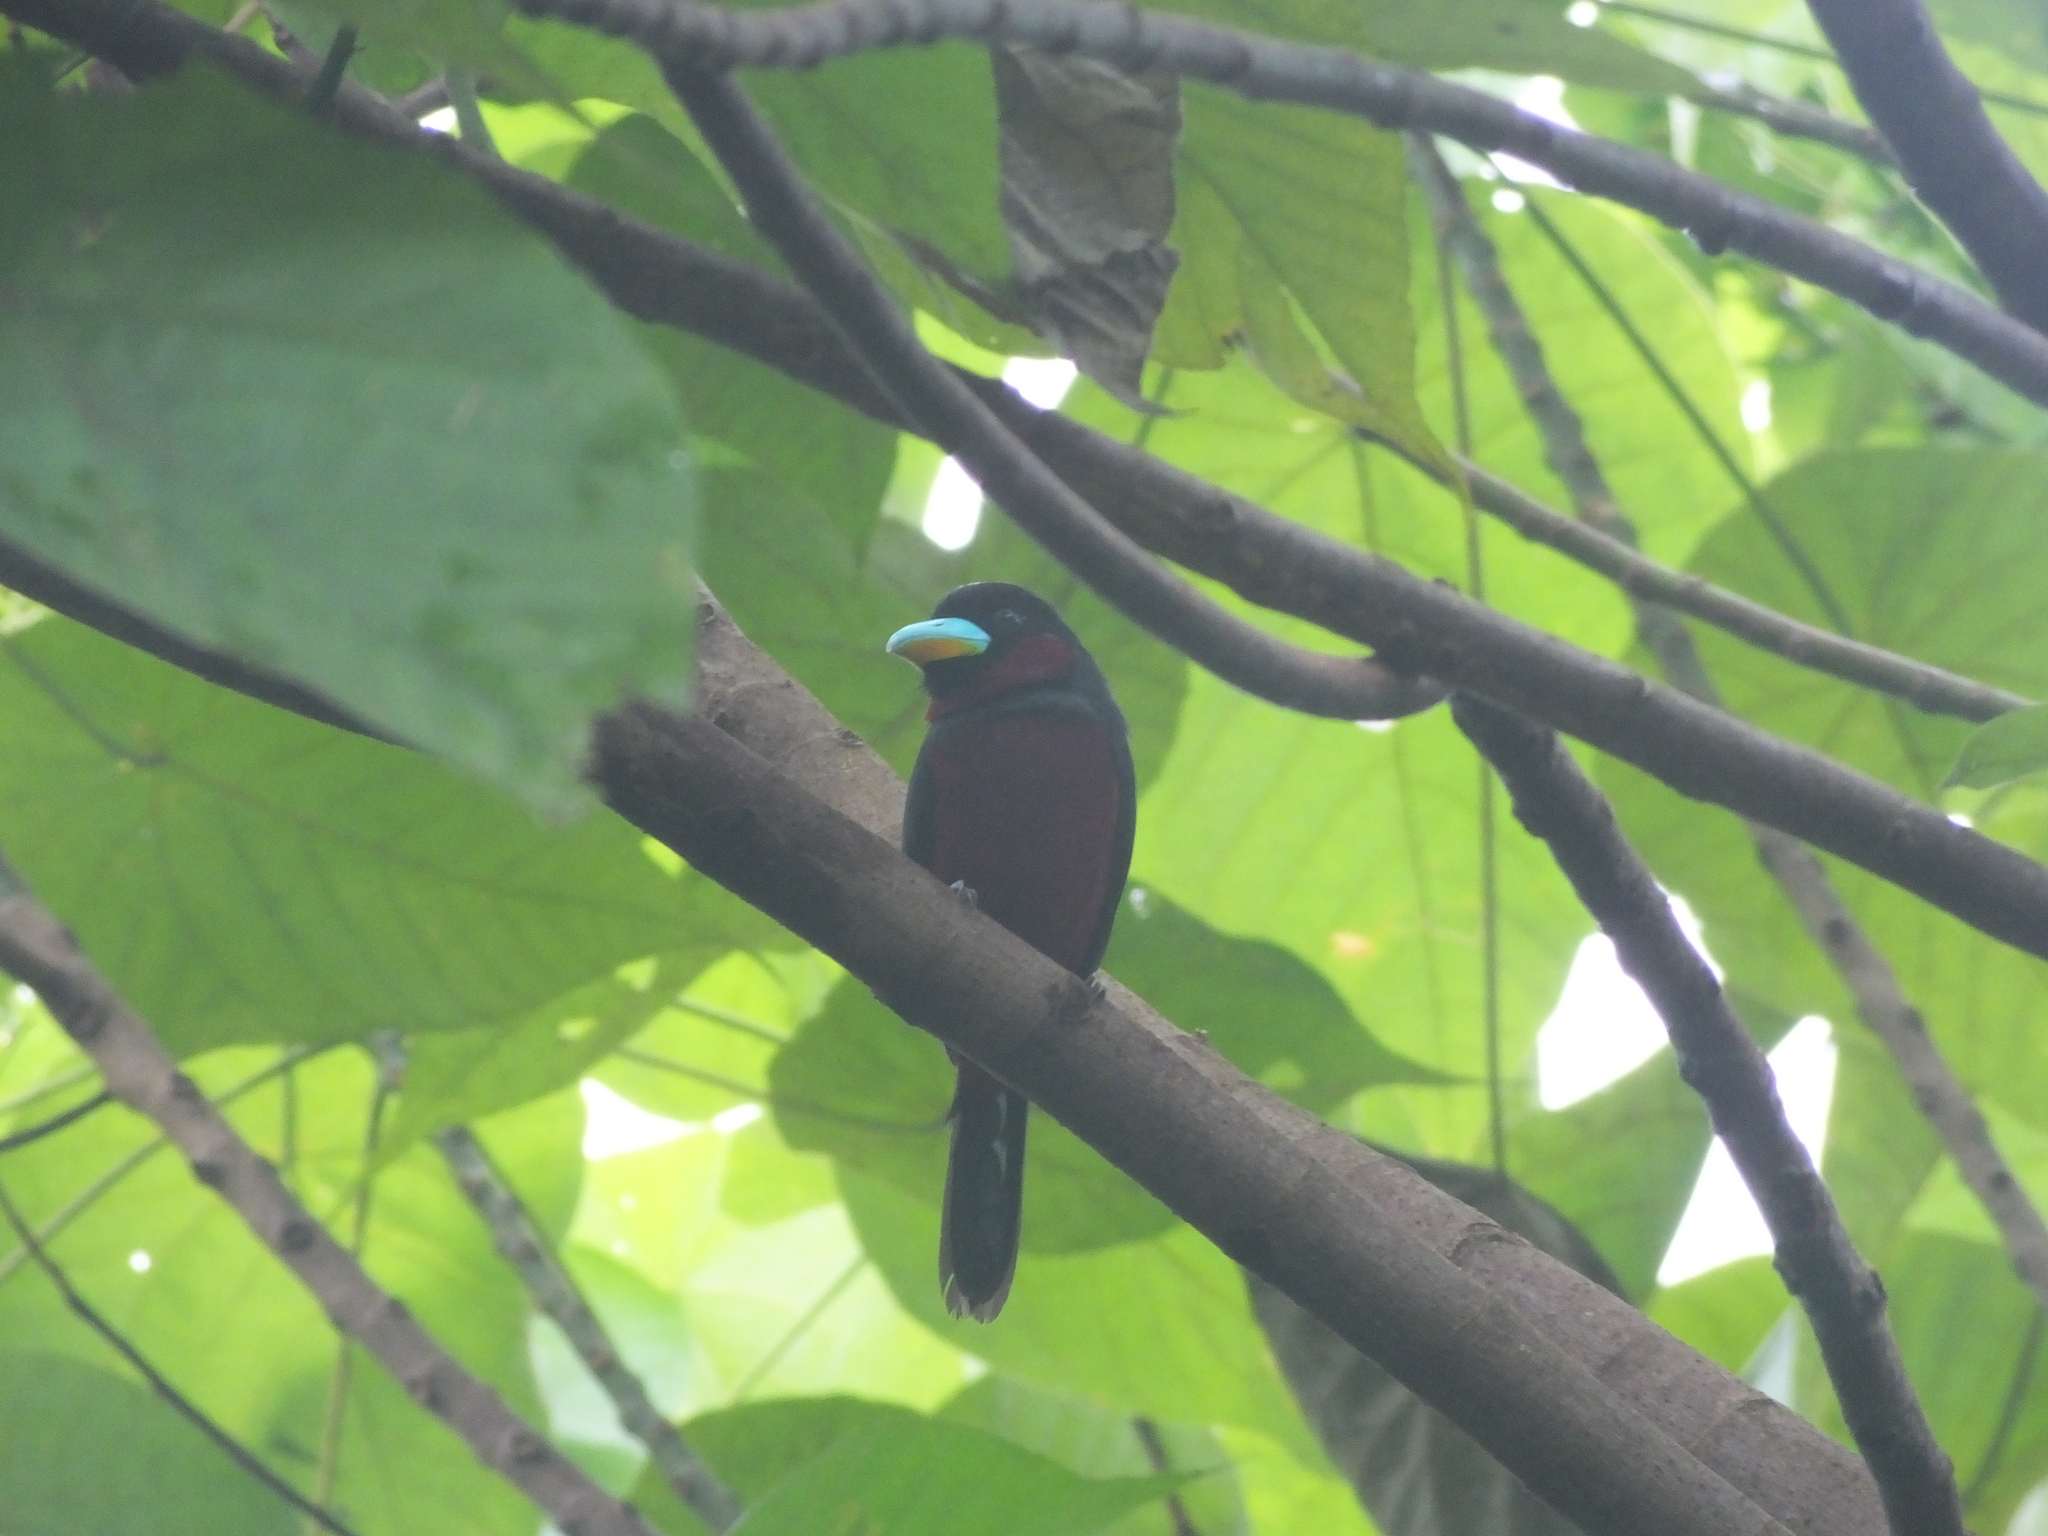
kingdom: Animalia
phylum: Chordata
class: Aves
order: Passeriformes
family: Eurylaimidae
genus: Cymbirhynchus
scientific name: Cymbirhynchus macrorhynchos
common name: Black-and-red broadbill
